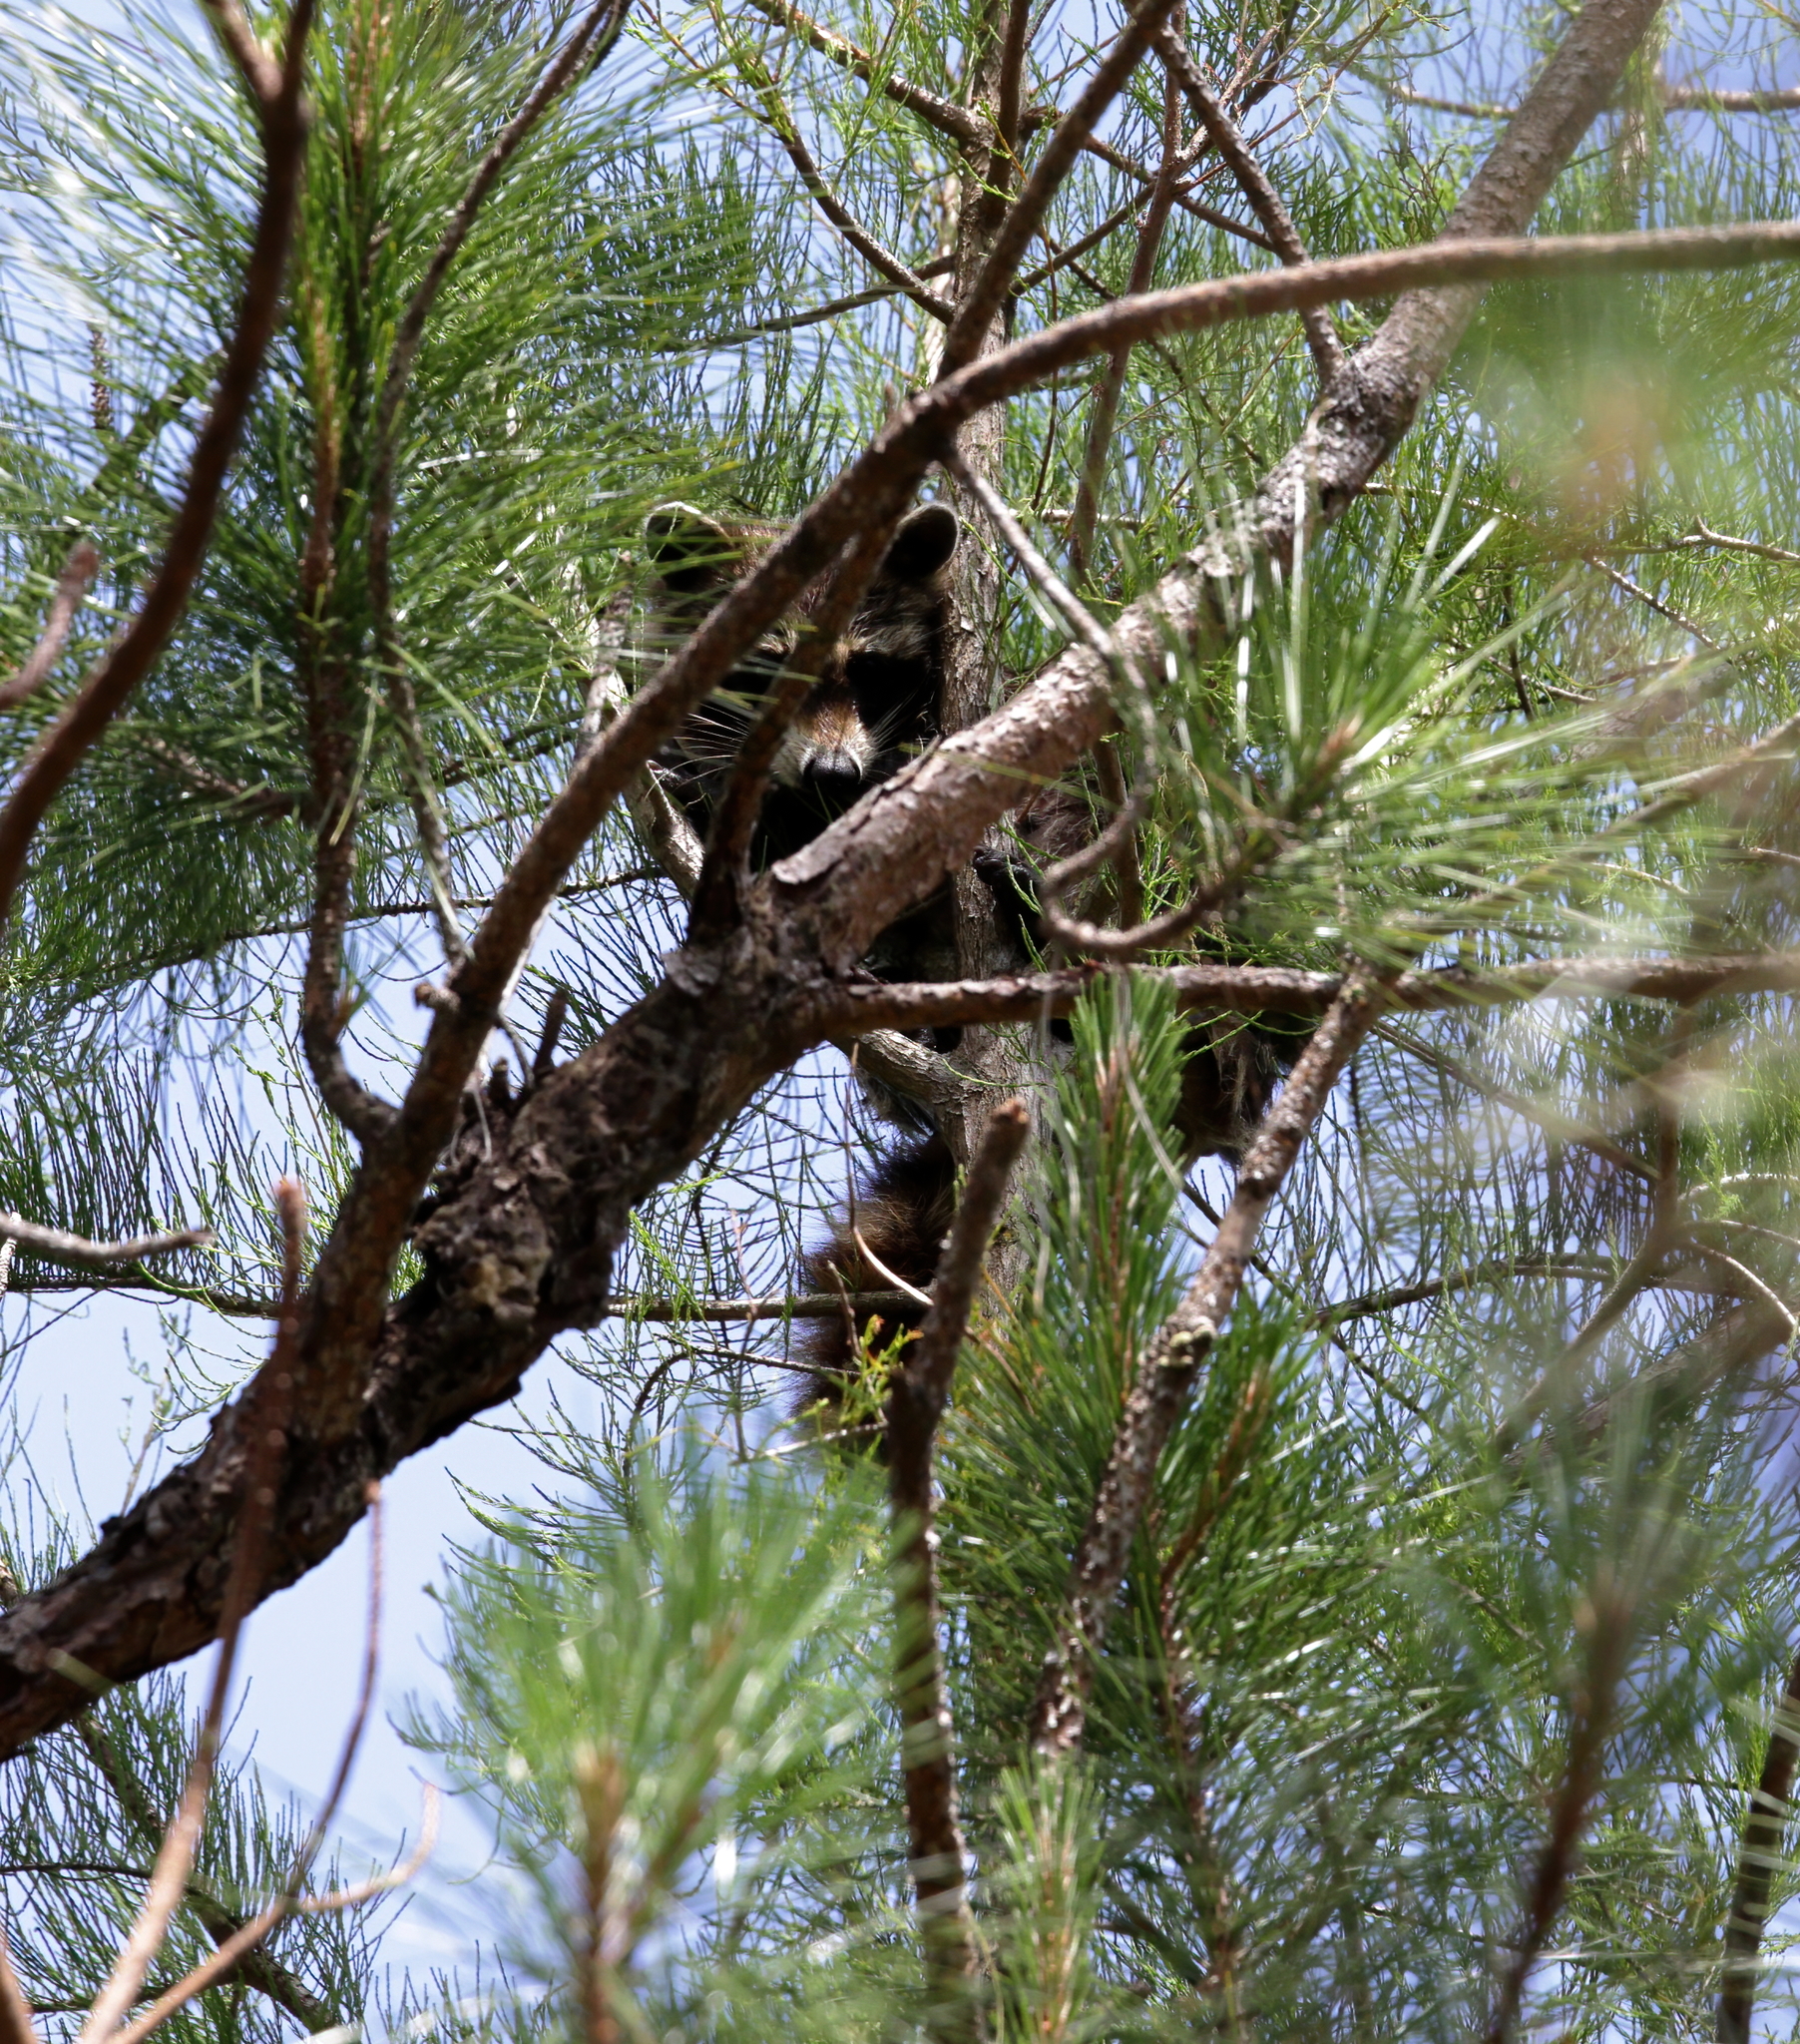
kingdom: Animalia
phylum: Chordata
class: Mammalia
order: Carnivora
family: Procyonidae
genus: Procyon
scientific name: Procyon lotor
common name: Raccoon
